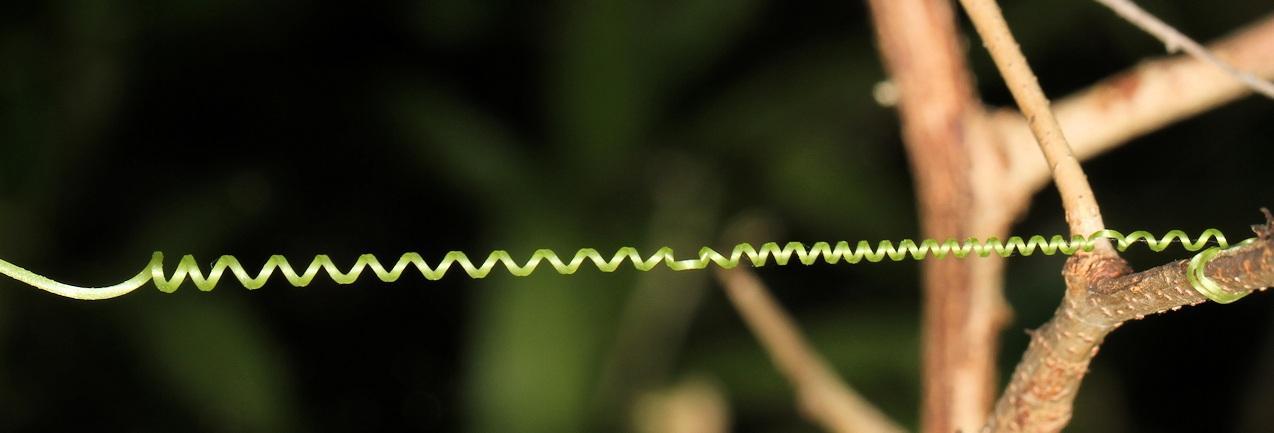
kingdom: Plantae
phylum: Tracheophyta
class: Magnoliopsida
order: Cucurbitales
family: Cucurbitaceae
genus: Momordica
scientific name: Momordica charantia
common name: Balsampear
